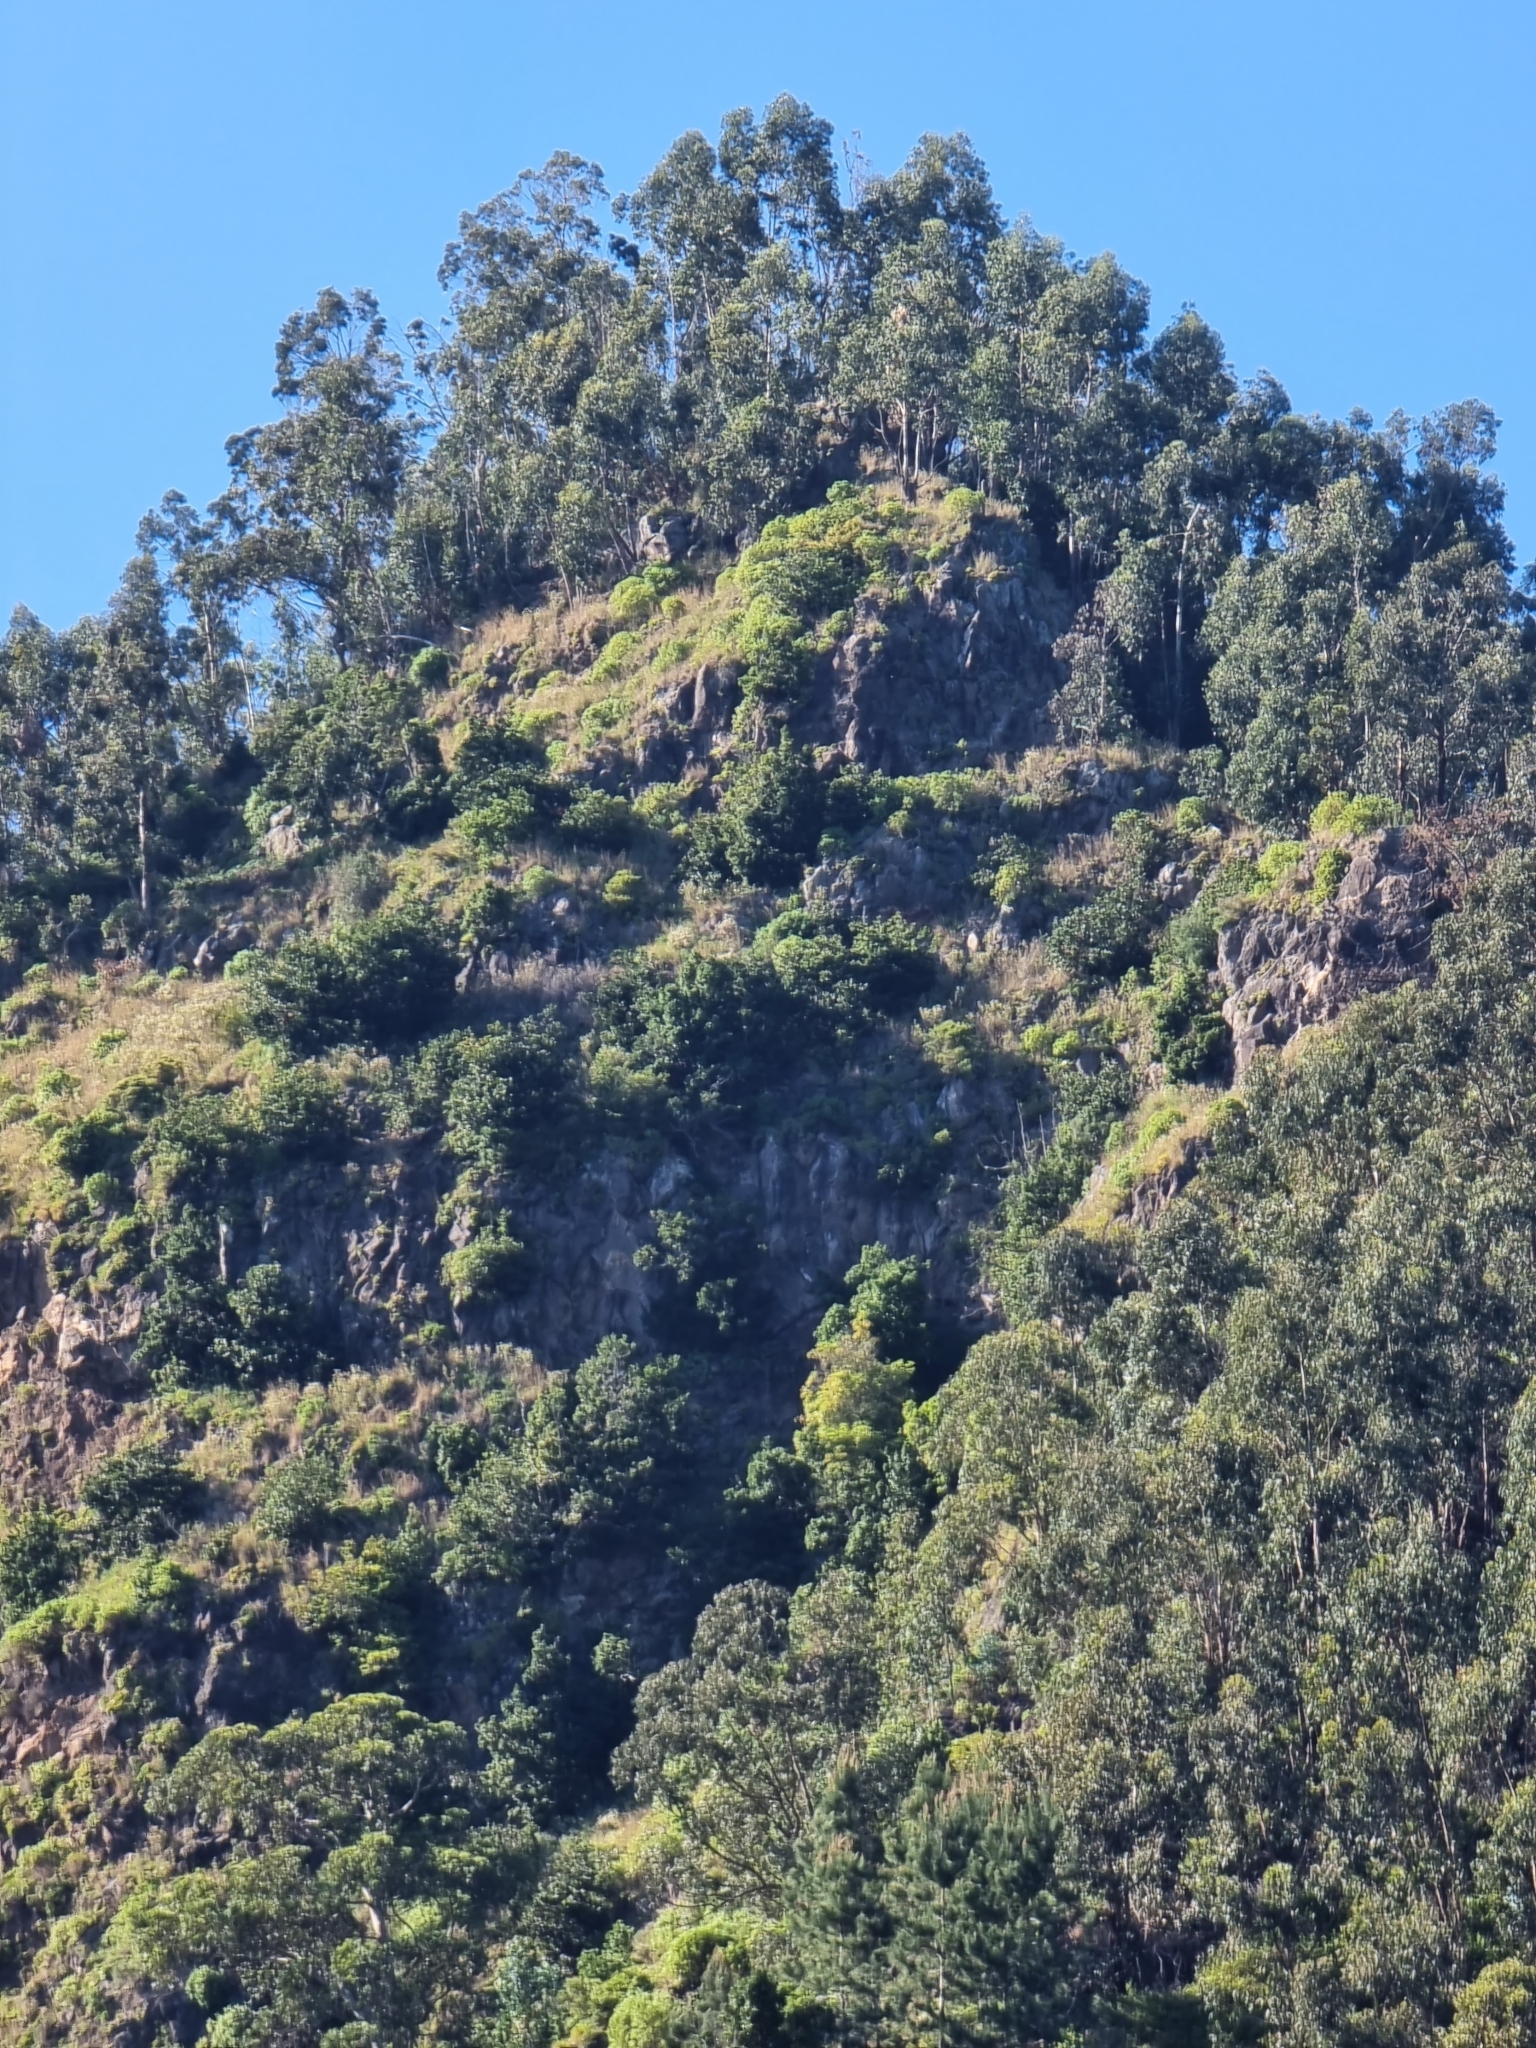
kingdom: Plantae
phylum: Tracheophyta
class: Magnoliopsida
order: Myrtales
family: Myrtaceae
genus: Eucalyptus
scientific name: Eucalyptus globulus
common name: Southern blue-gum
